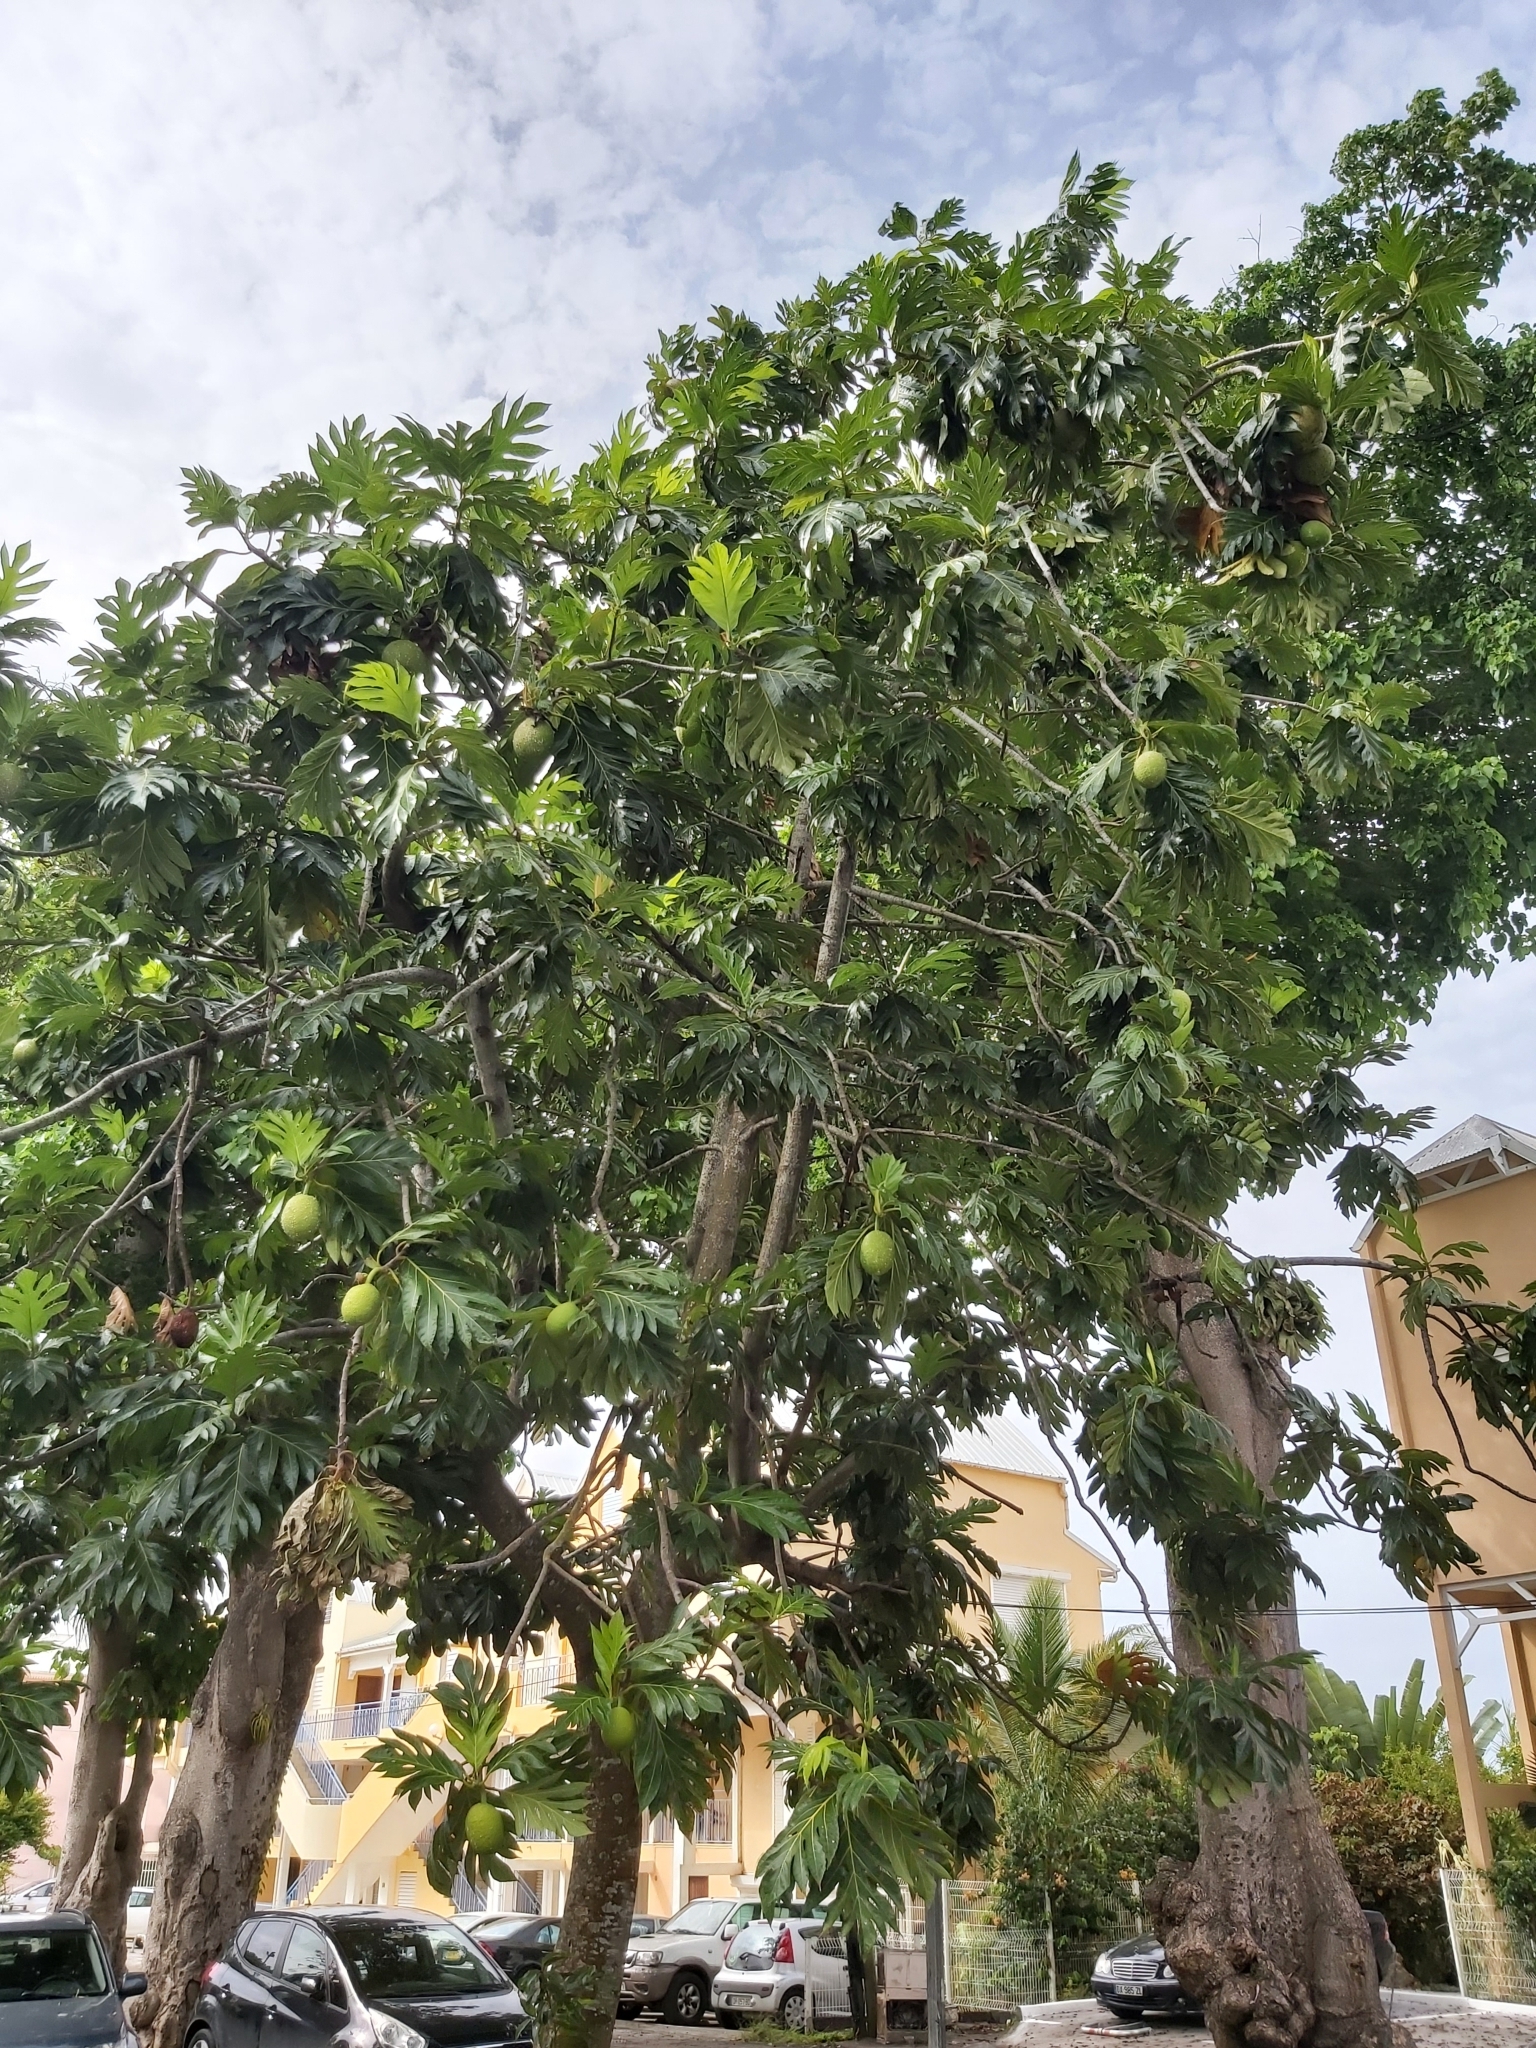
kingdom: Plantae
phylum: Tracheophyta
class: Magnoliopsida
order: Rosales
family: Moraceae
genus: Artocarpus
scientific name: Artocarpus altilis
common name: Breadfruit
